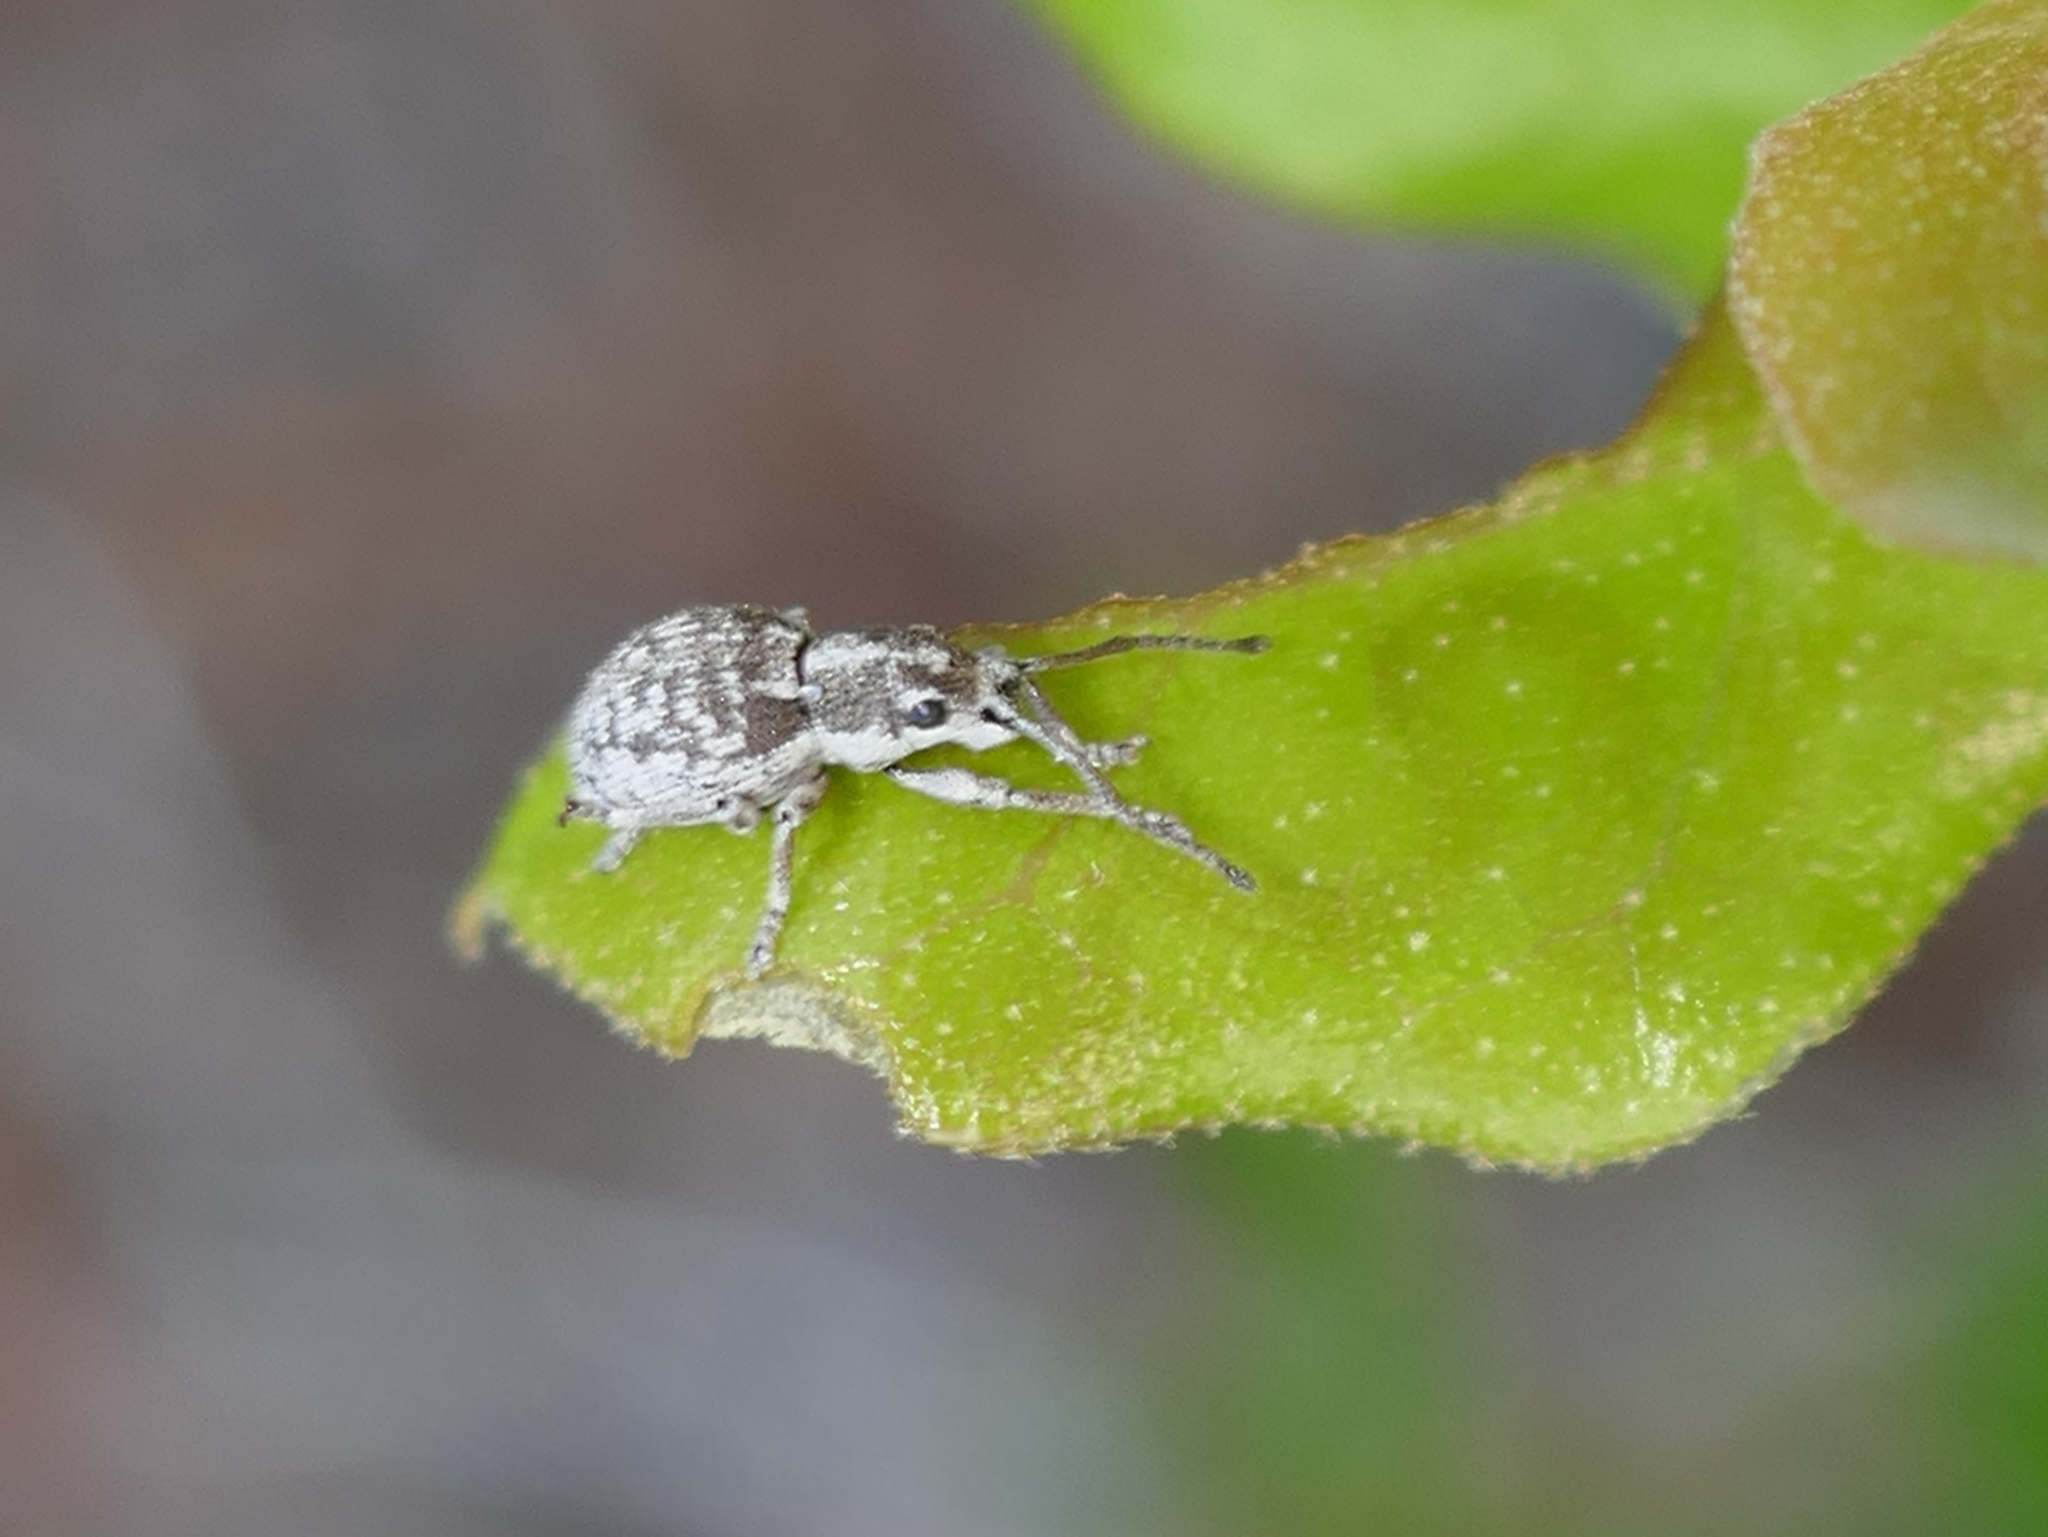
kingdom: Animalia
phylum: Arthropoda
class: Insecta
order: Coleoptera
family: Curculionidae
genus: Neoptochus
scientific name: Neoptochus adspersus
